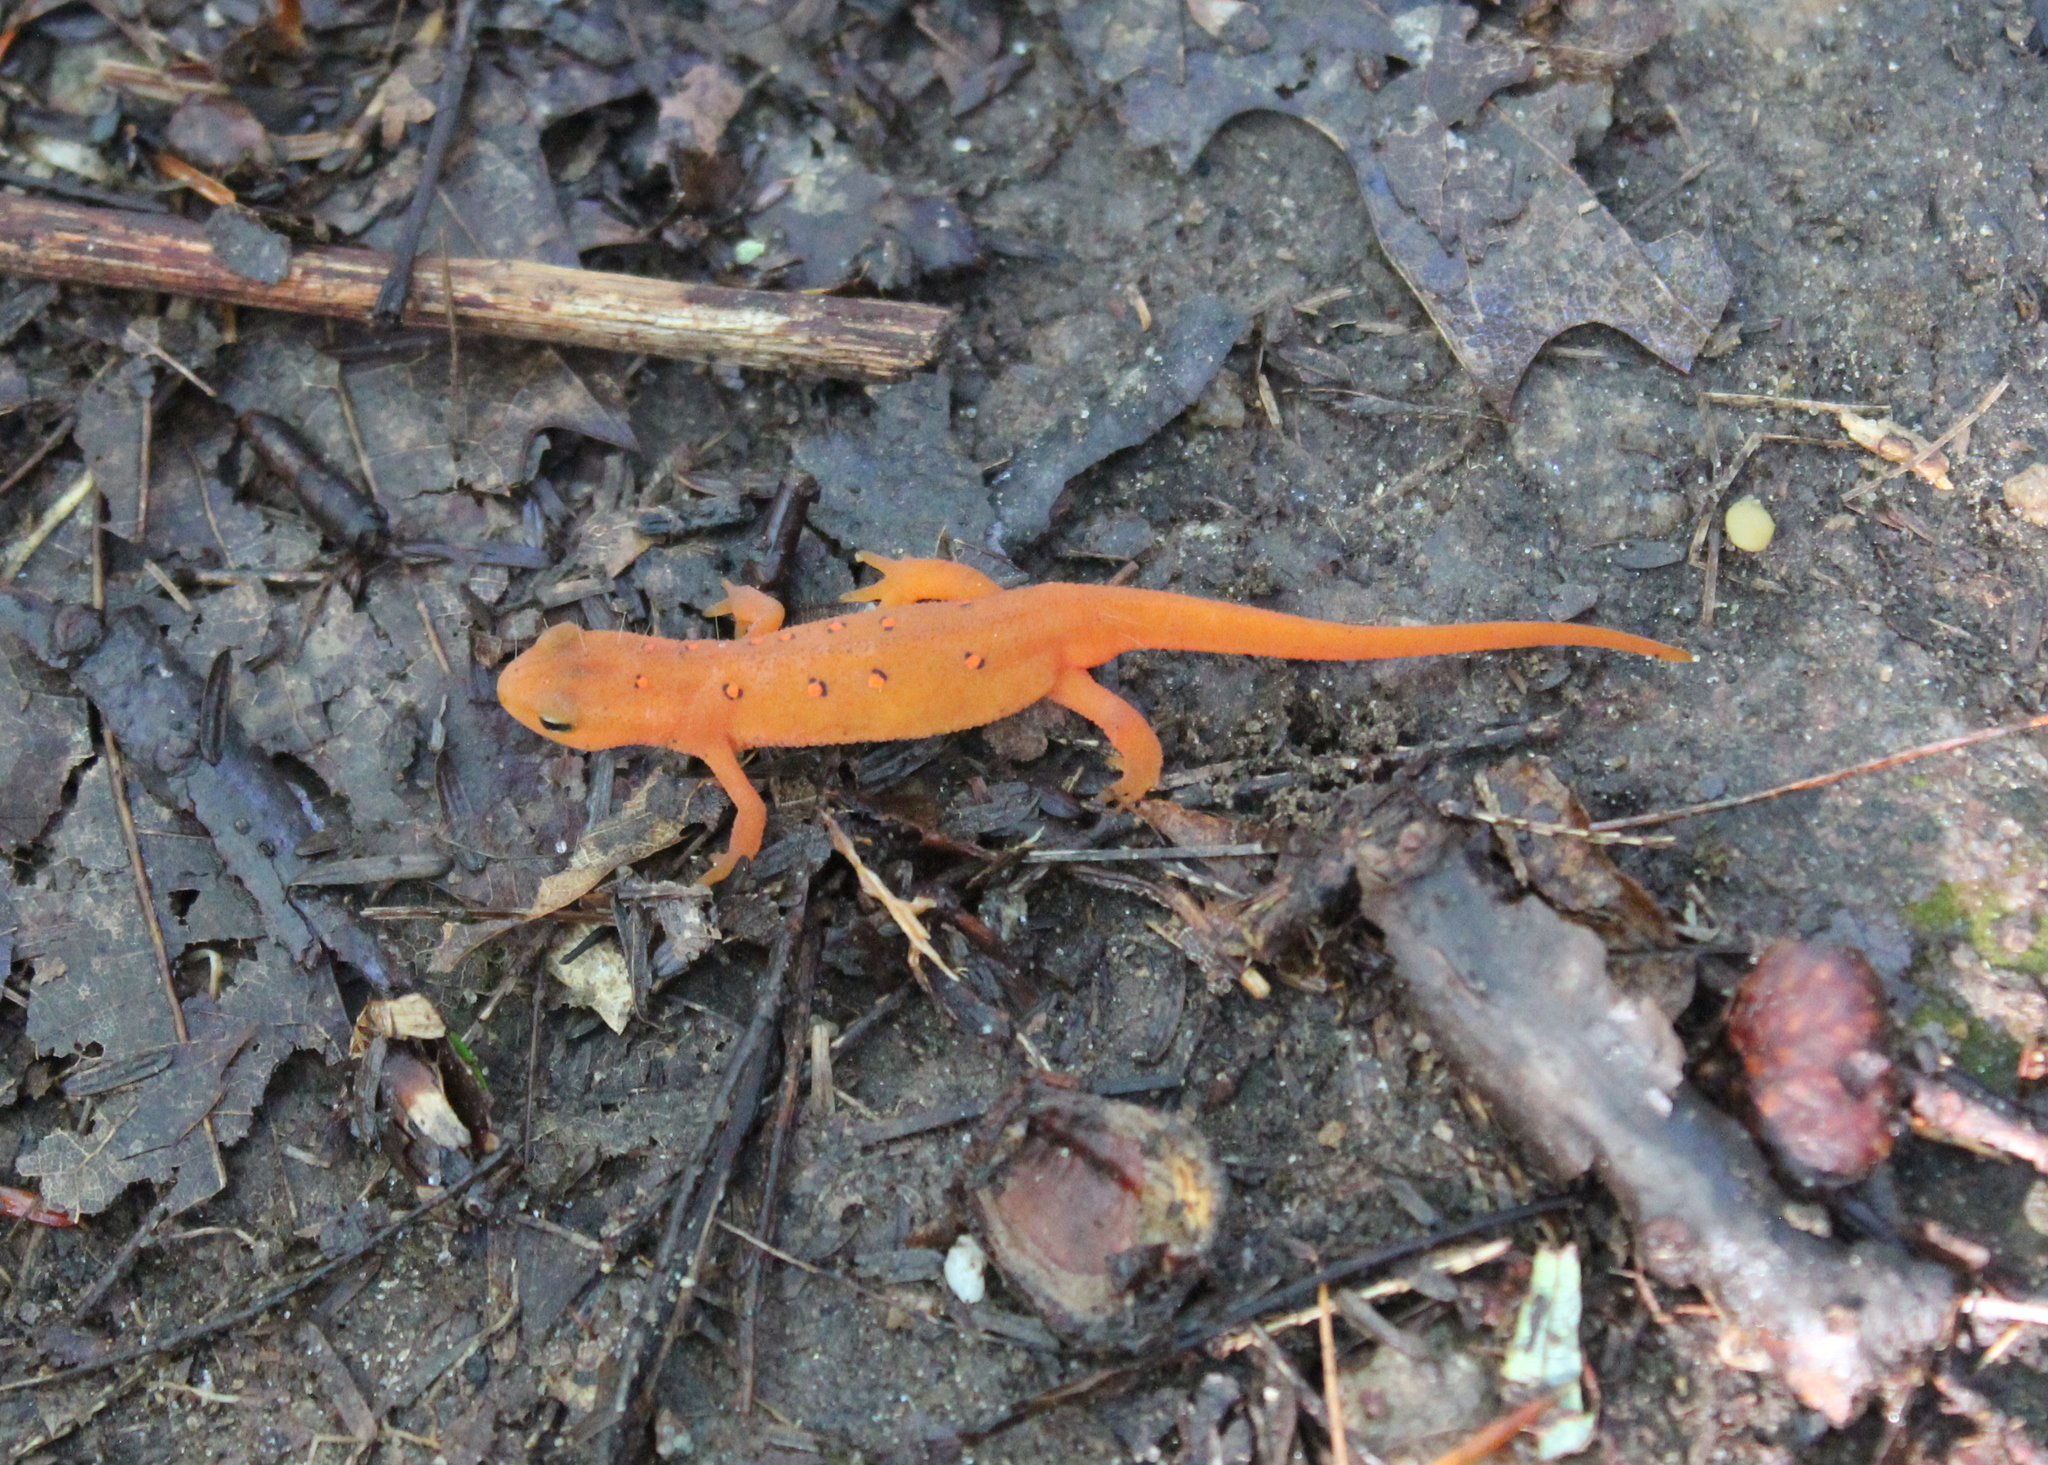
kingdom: Animalia
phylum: Chordata
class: Amphibia
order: Caudata
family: Salamandridae
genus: Notophthalmus
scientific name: Notophthalmus viridescens
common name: Eastern newt
